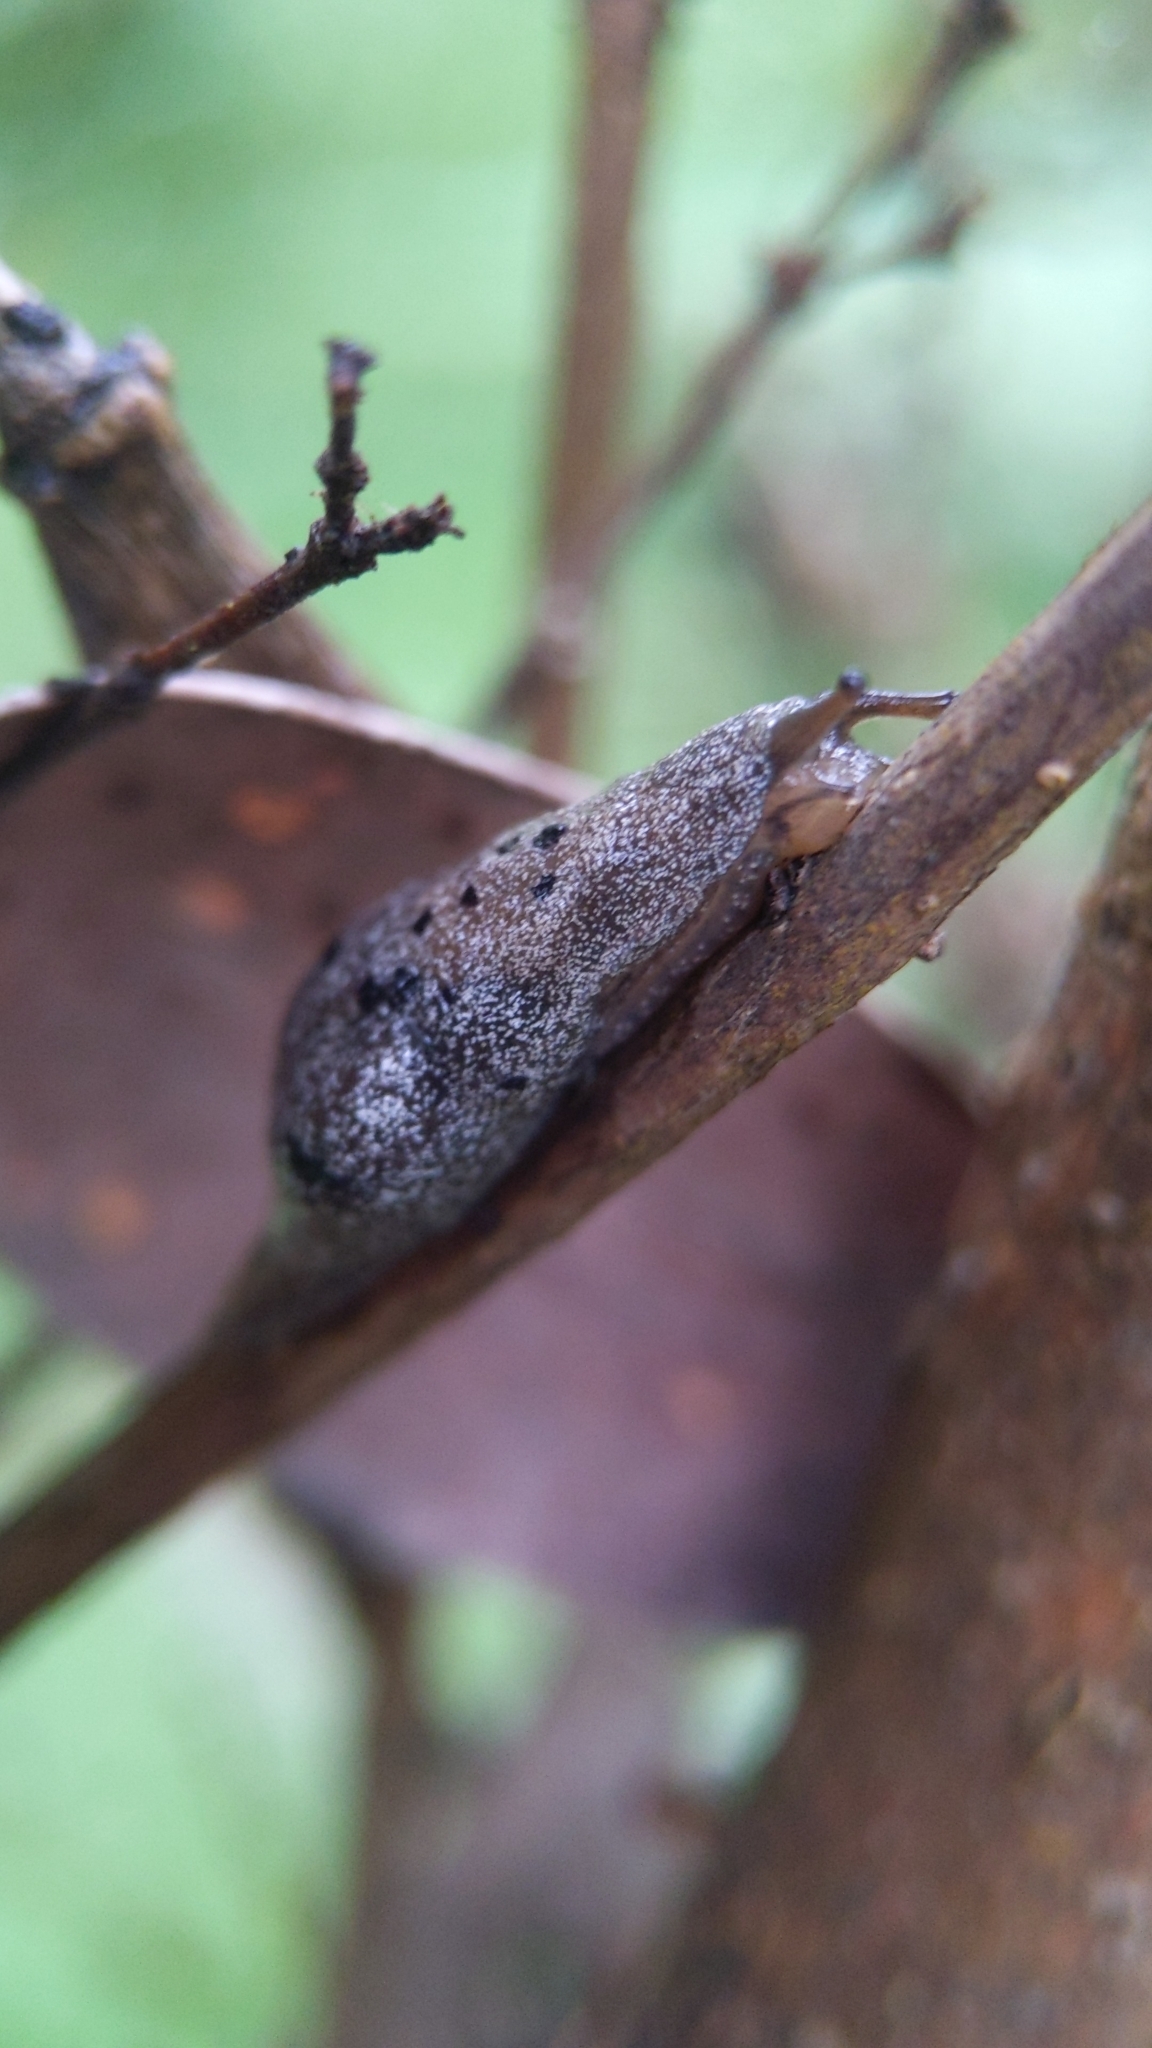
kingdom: Animalia
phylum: Mollusca
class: Gastropoda
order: Stylommatophora
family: Cystopeltidae
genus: Cystopelta
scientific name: Cystopelta purpurea
